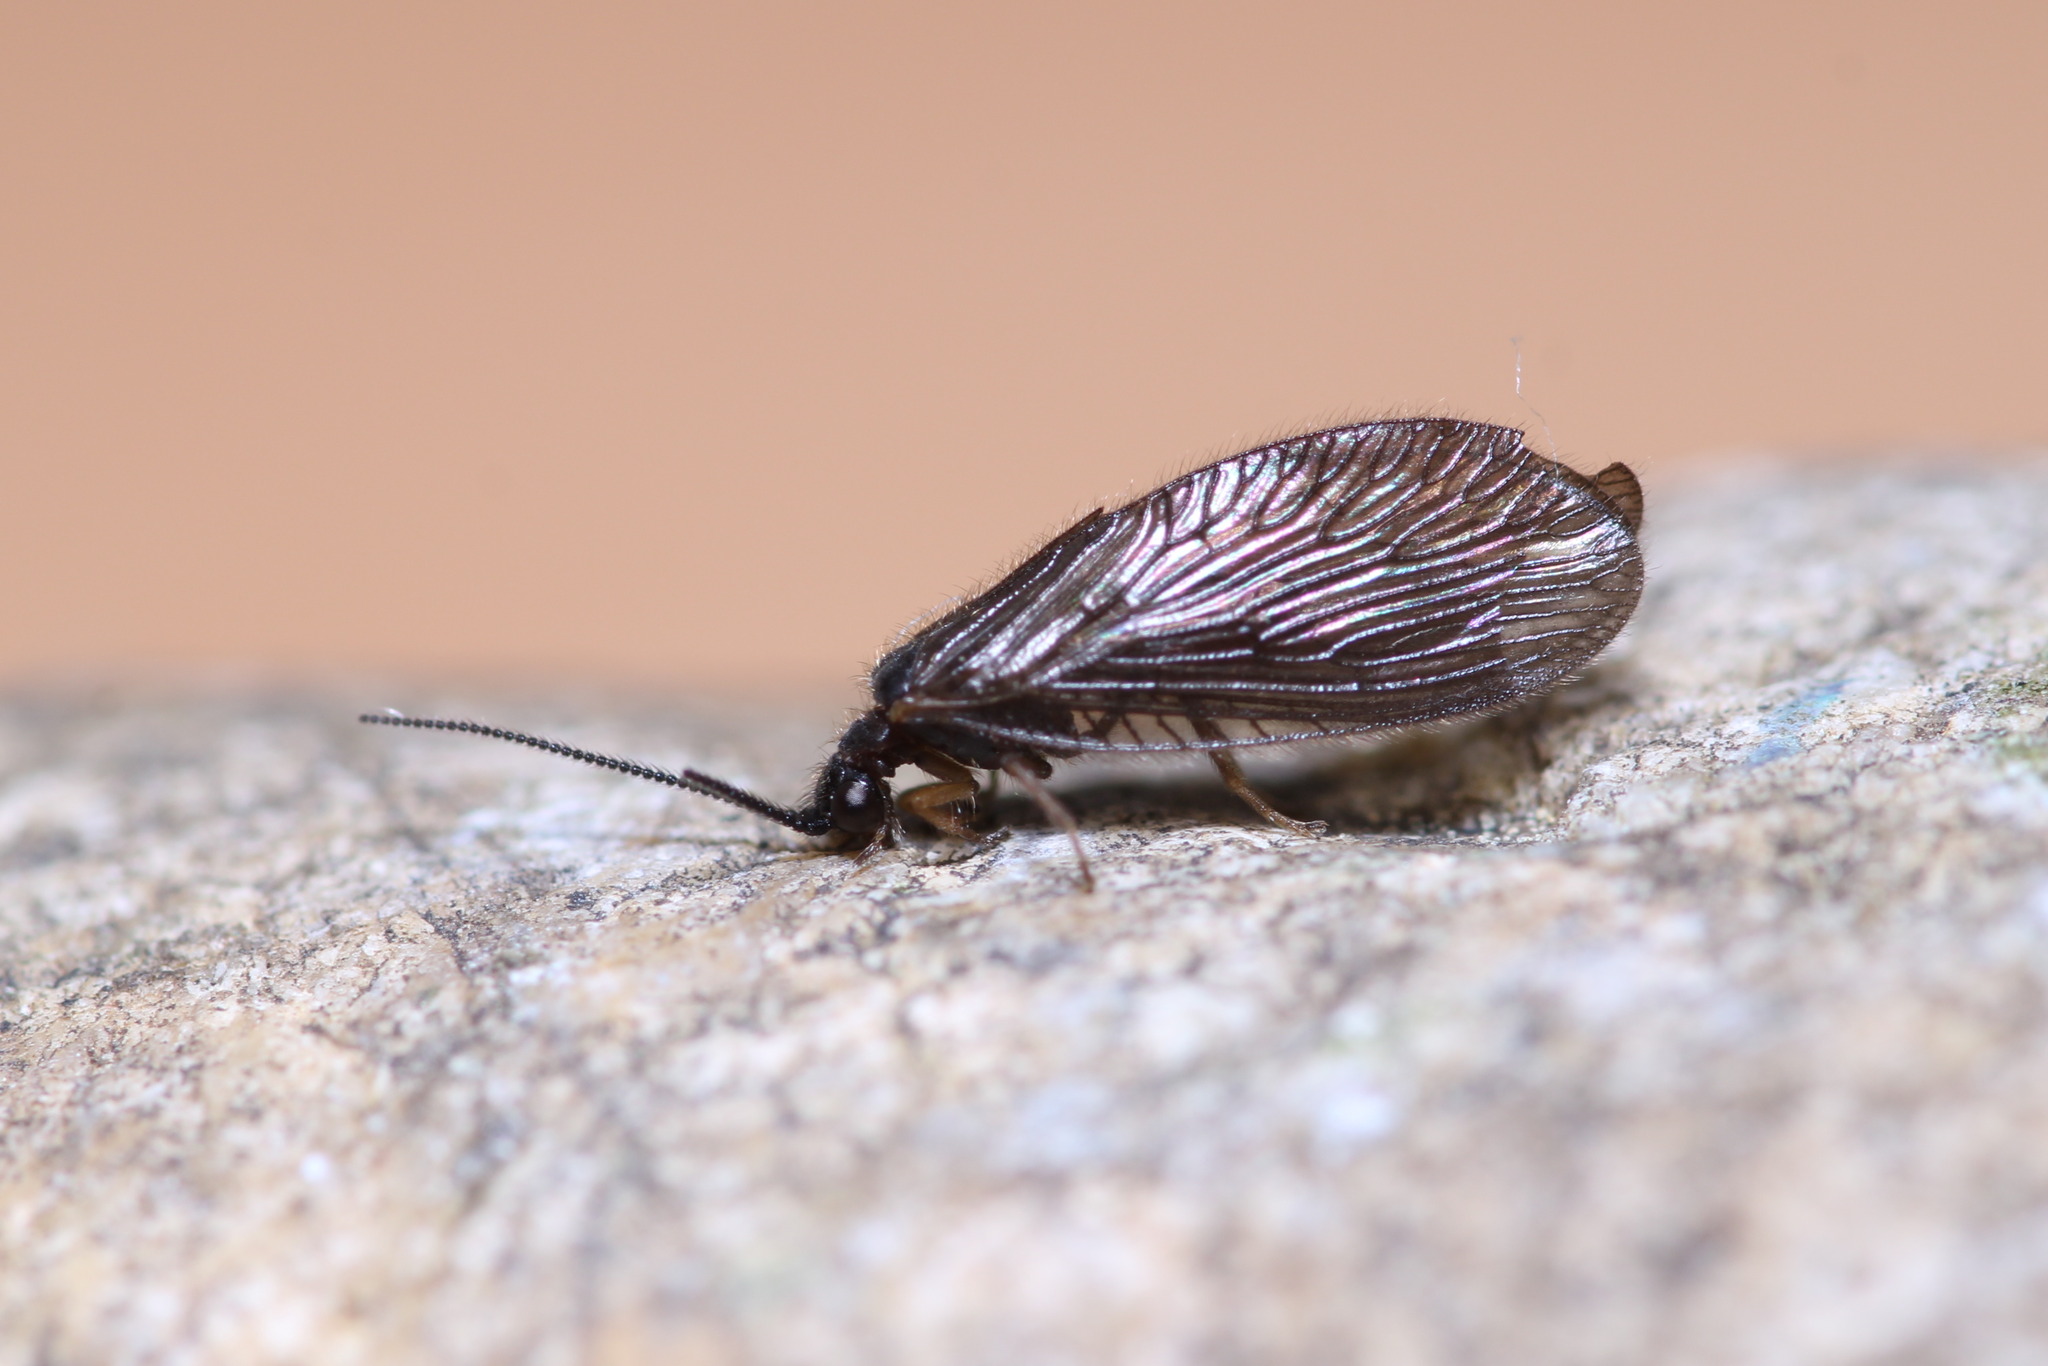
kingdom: Animalia
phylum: Arthropoda
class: Insecta
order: Neuroptera
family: Sisyridae
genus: Sisyra
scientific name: Sisyra nigra
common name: Black spongillafly
